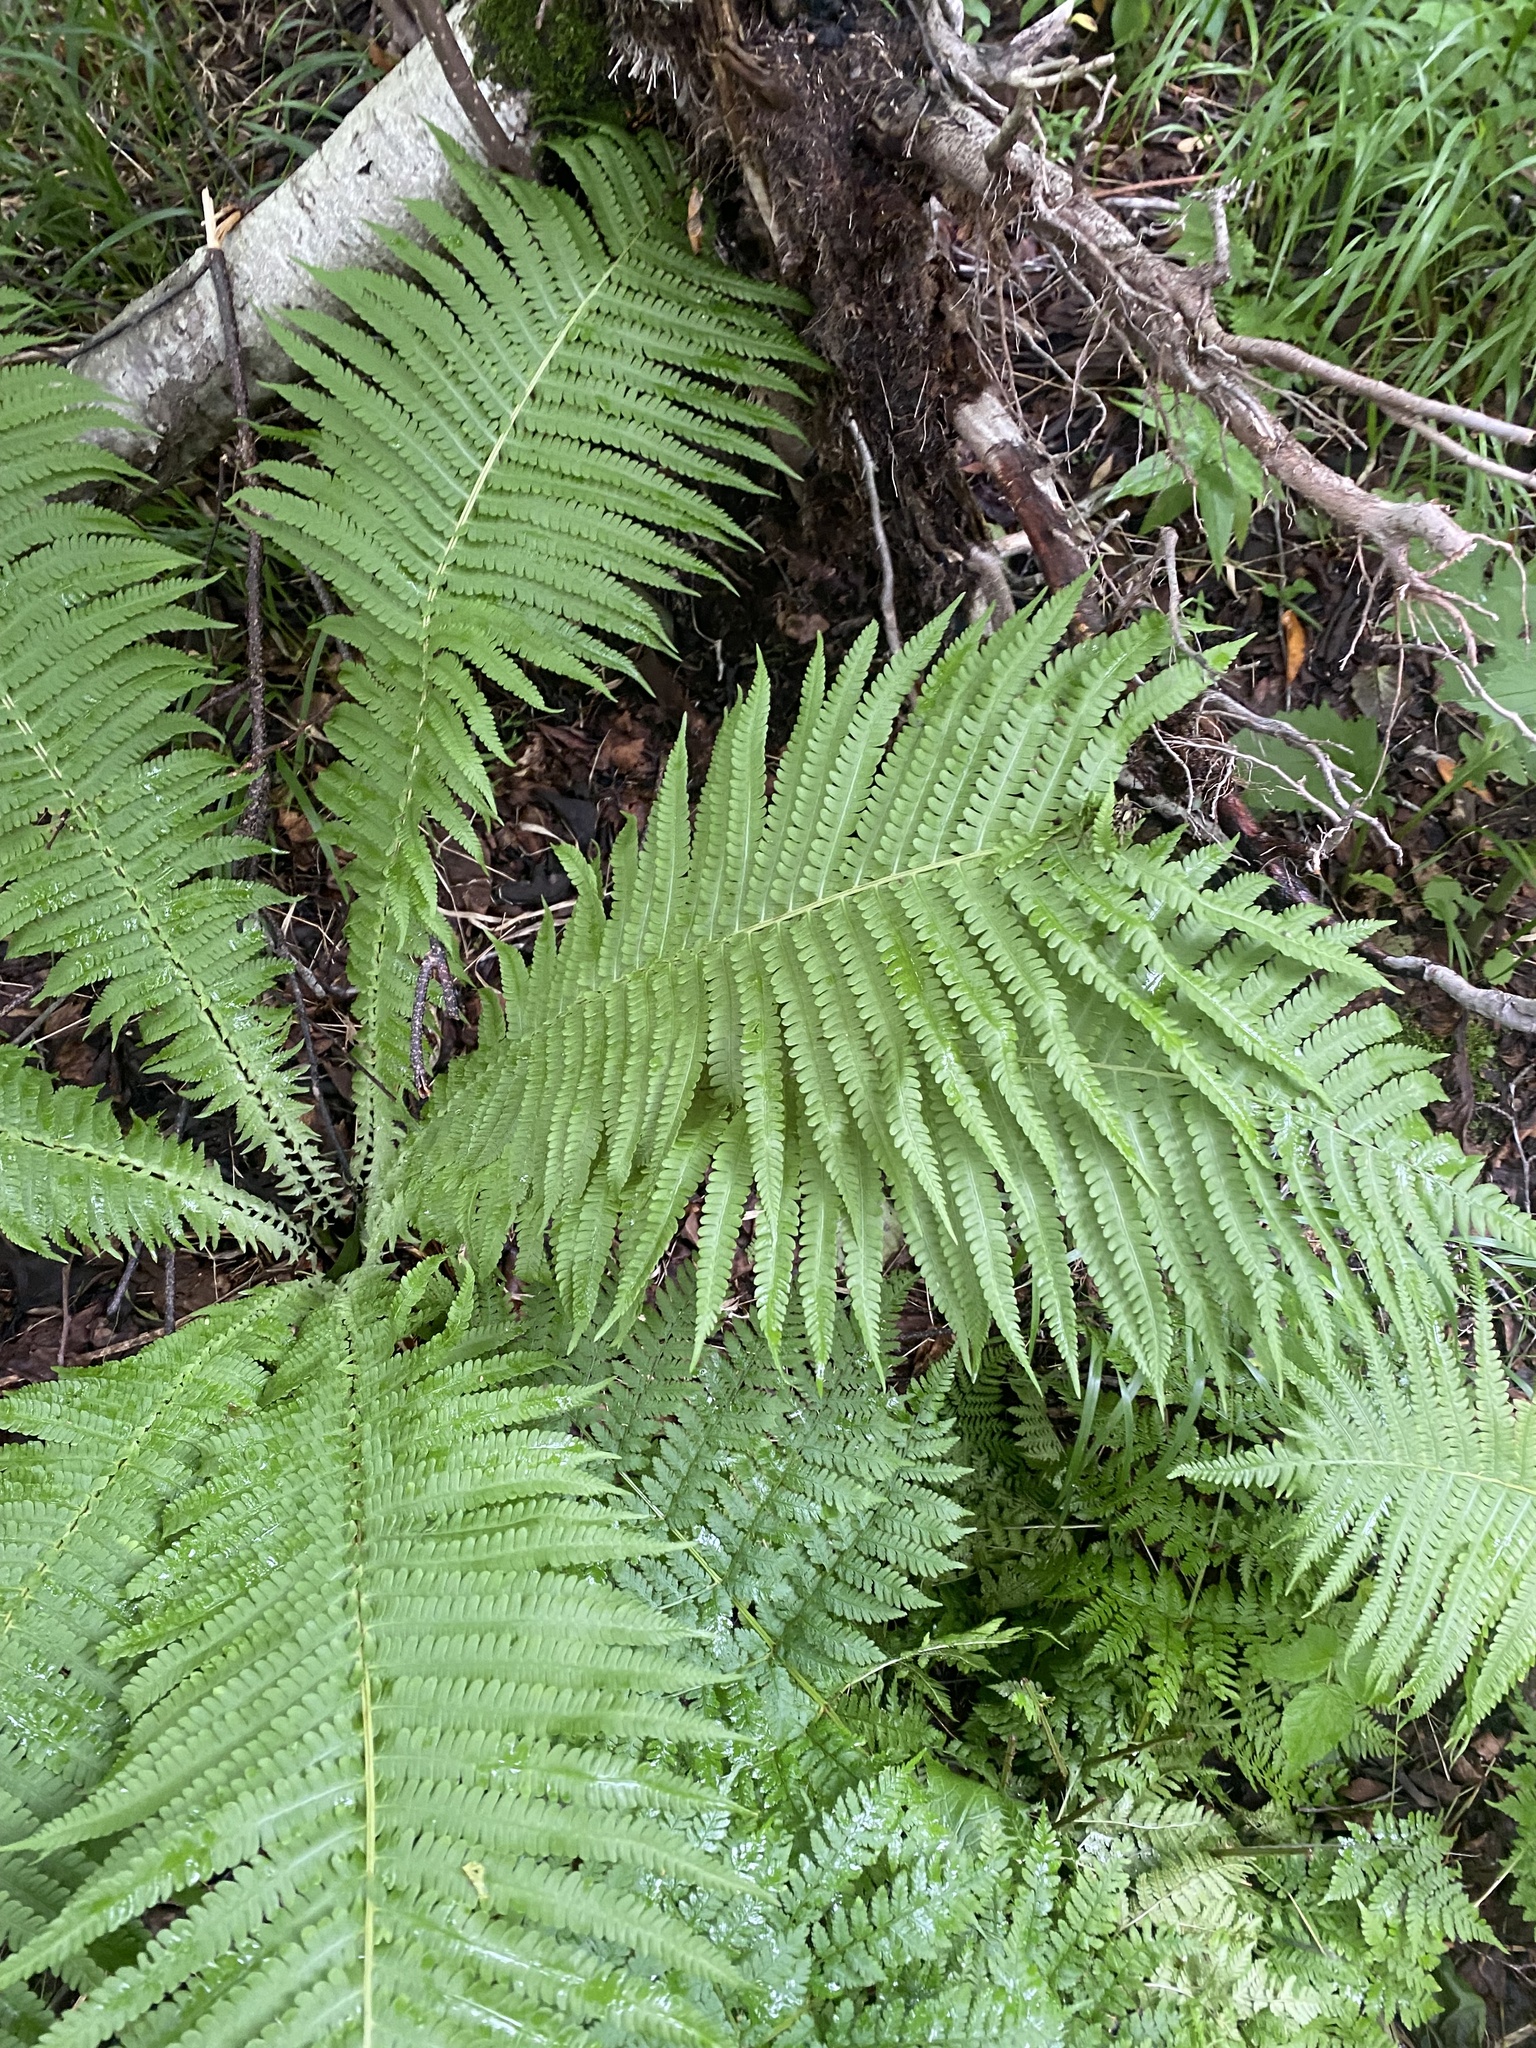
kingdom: Plantae
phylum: Tracheophyta
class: Polypodiopsida
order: Polypodiales
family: Onocleaceae
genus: Matteuccia
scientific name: Matteuccia struthiopteris
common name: Ostrich fern
